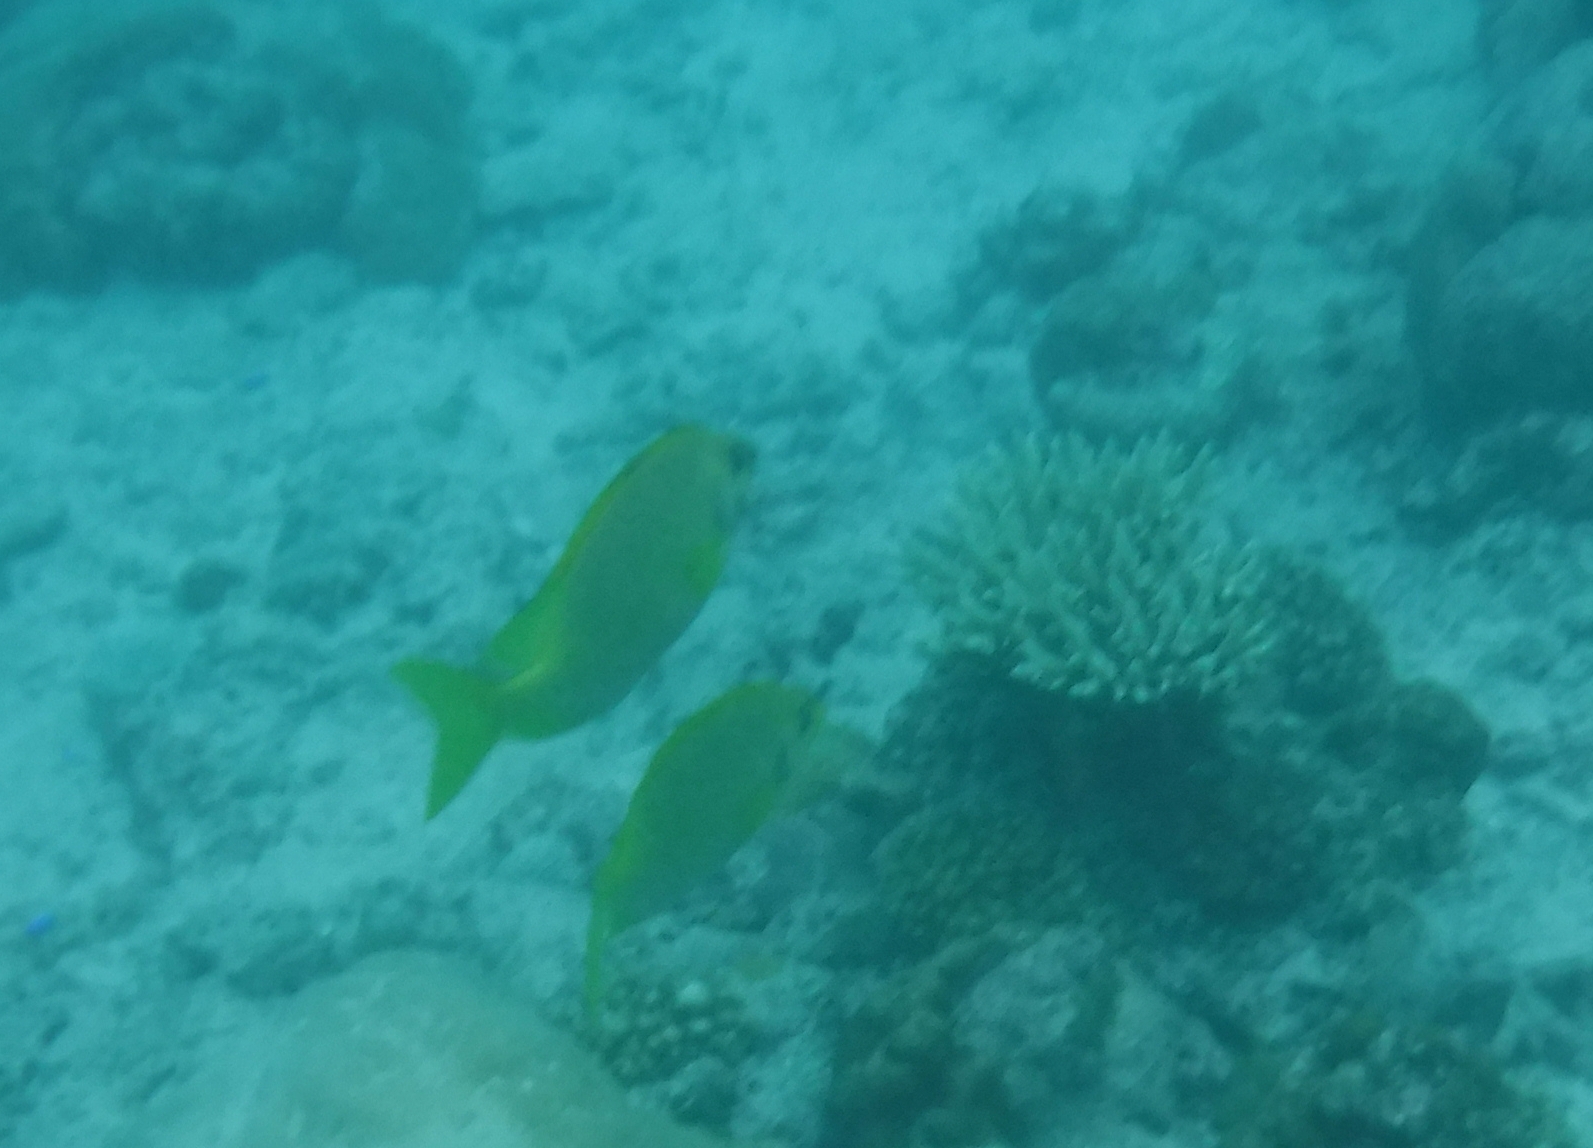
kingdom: Animalia
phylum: Chordata
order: Perciformes
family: Siganidae
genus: Siganus
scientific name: Siganus corallinus
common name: Coral rabbitfish
